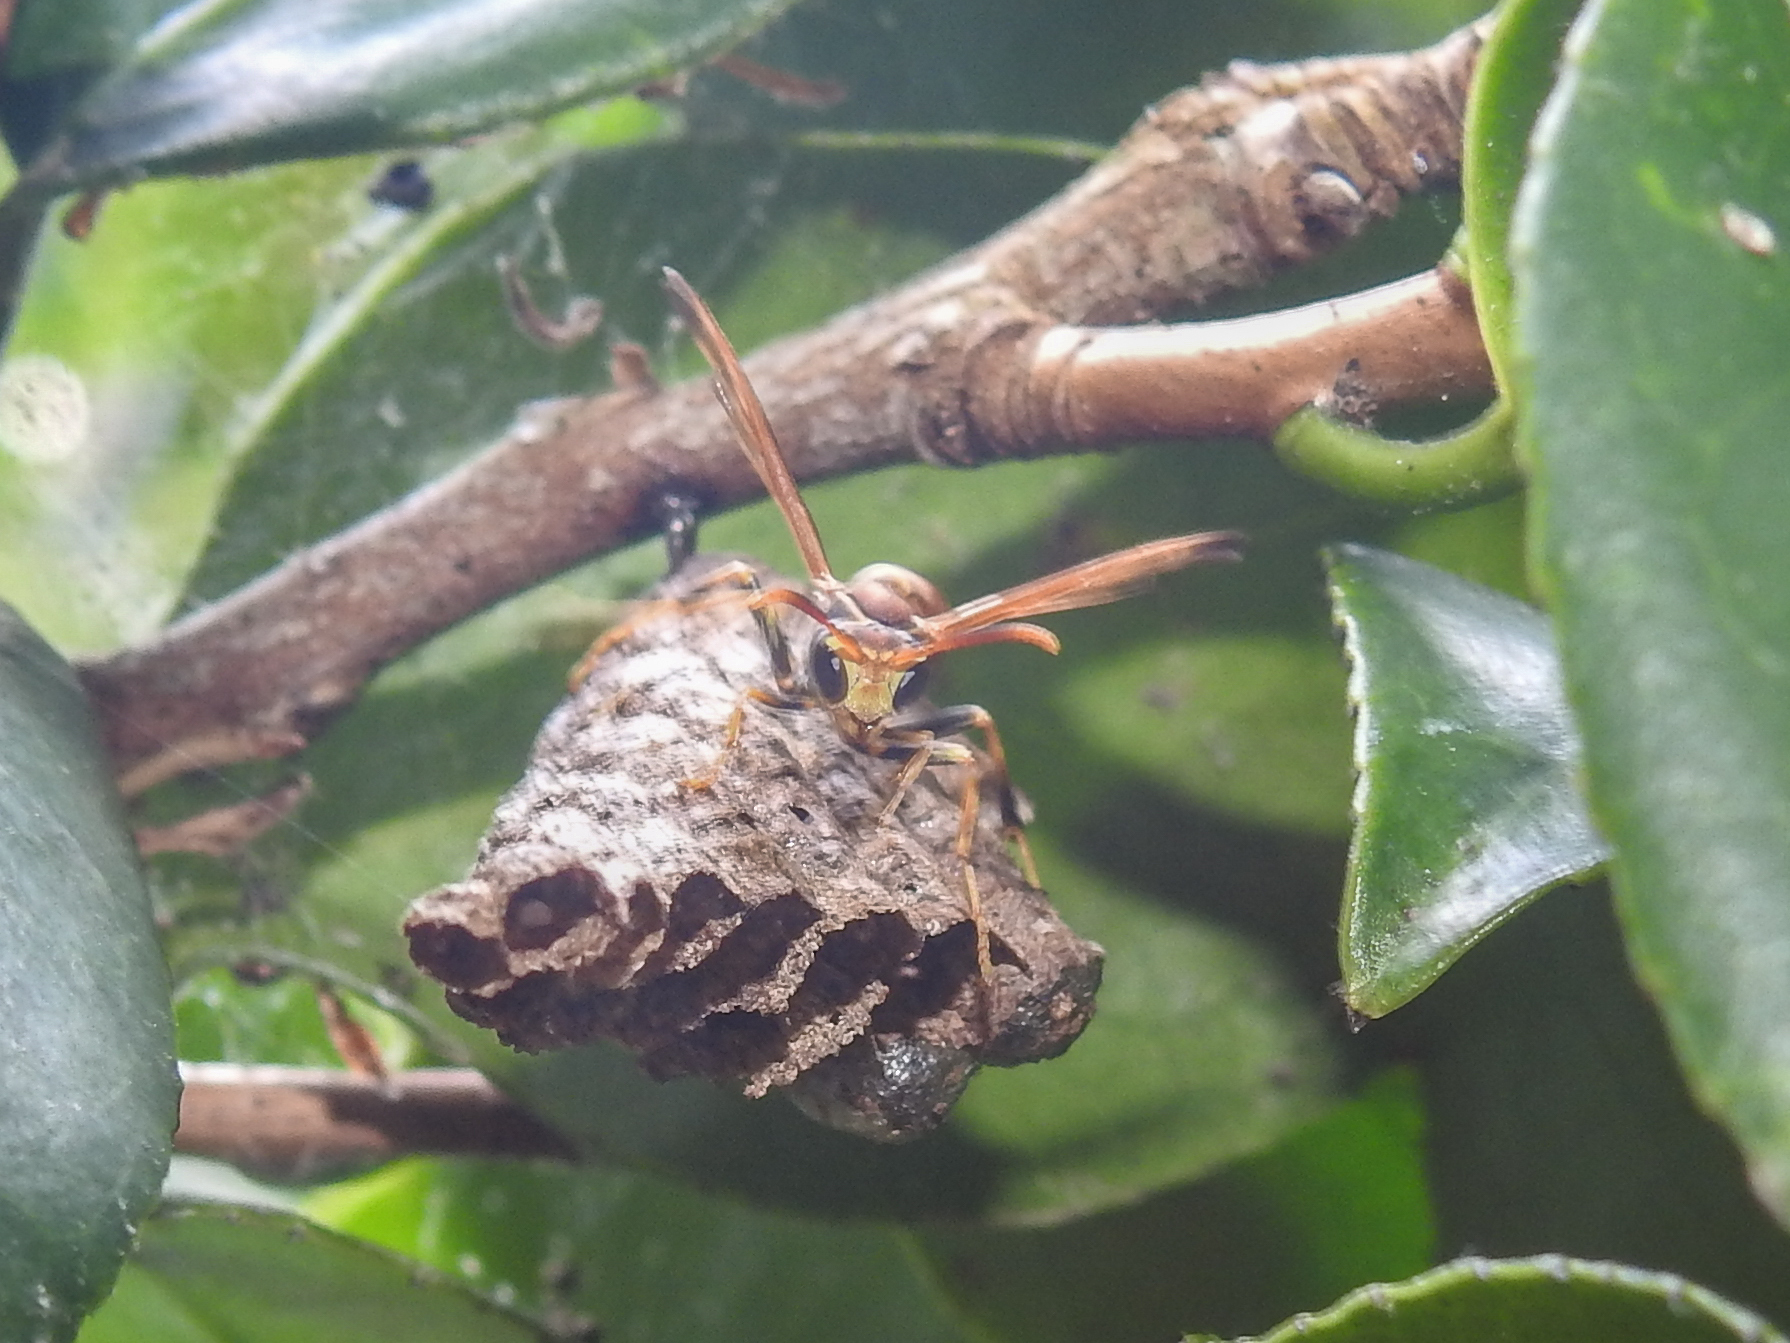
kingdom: Animalia
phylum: Arthropoda
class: Insecta
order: Hymenoptera
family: Vespidae
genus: Mischocyttarus
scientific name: Mischocyttarus mexicanus
